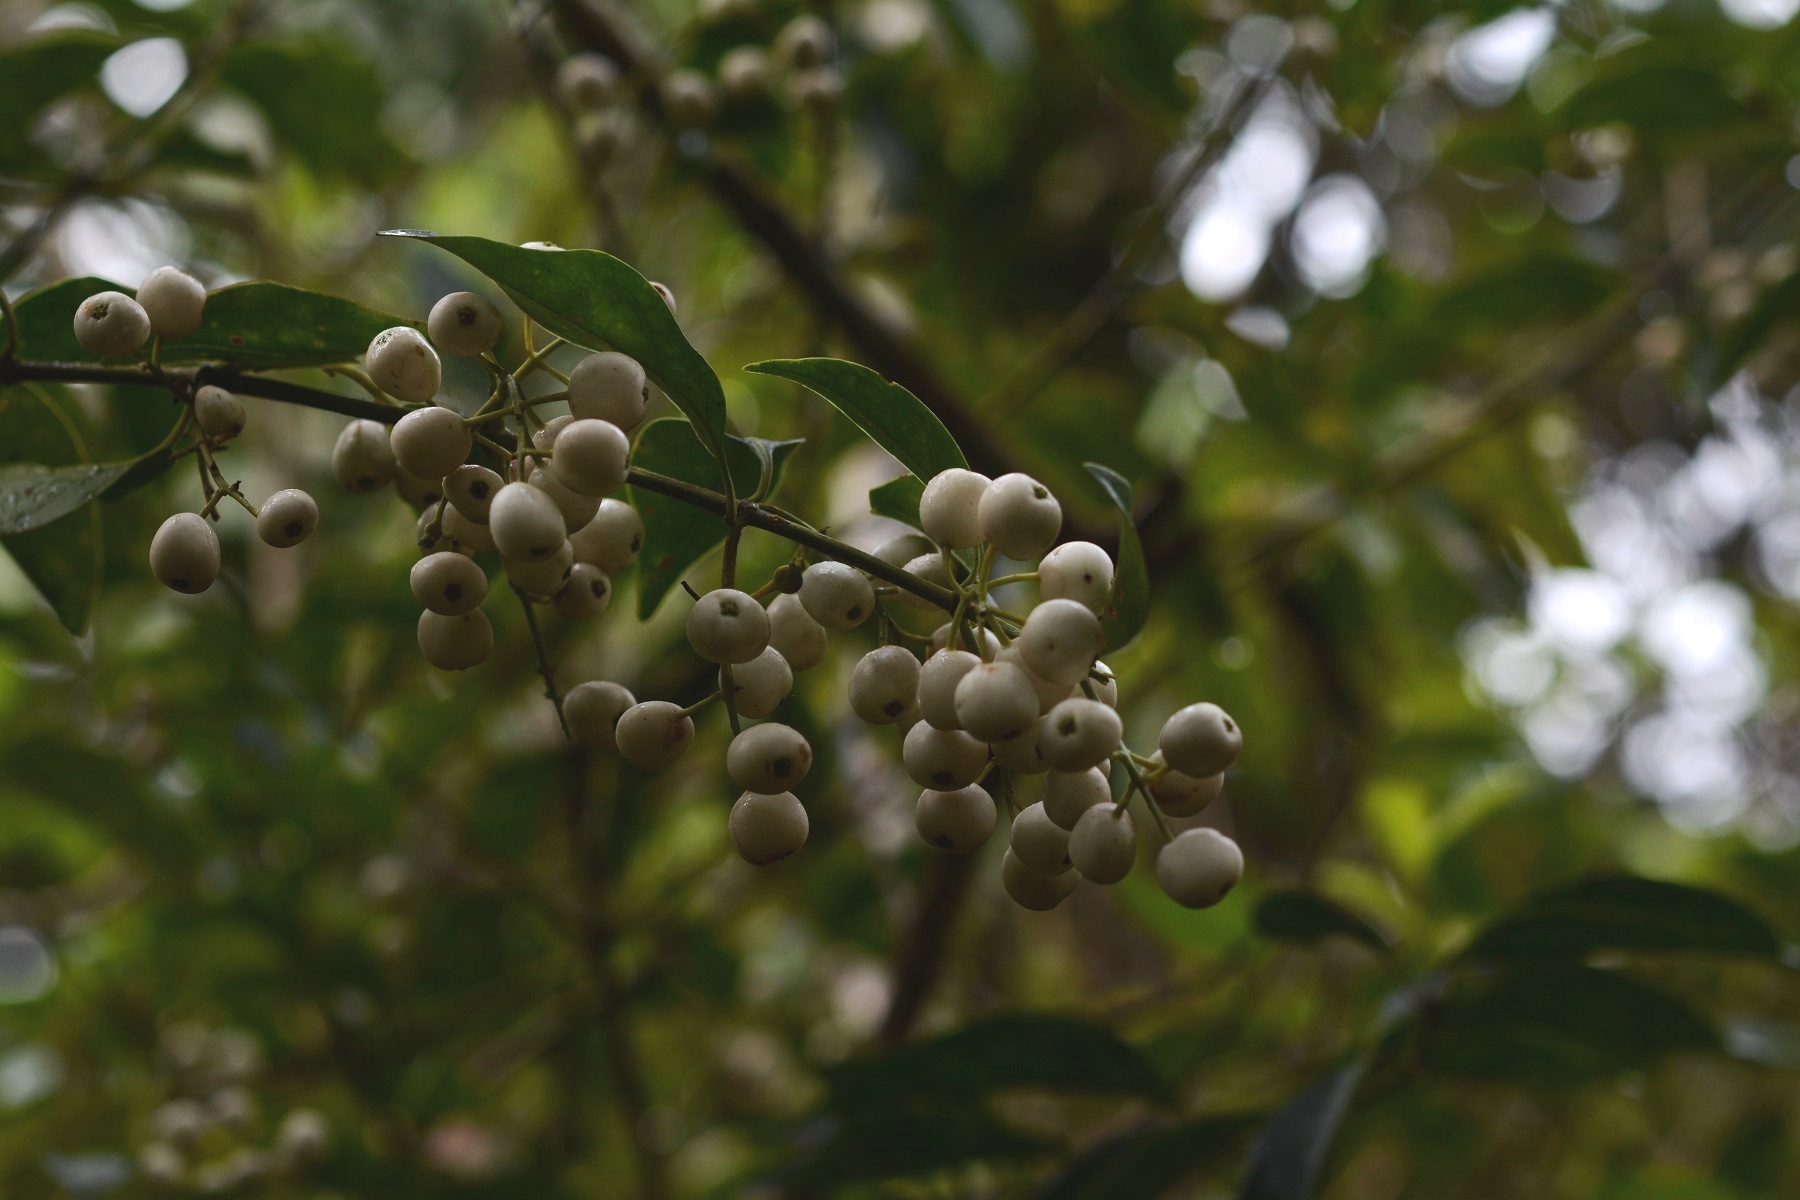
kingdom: Plantae
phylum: Tracheophyta
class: Magnoliopsida
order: Gentianales
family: Rubiaceae
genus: Chiococca
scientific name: Chiococca phaenostemon
